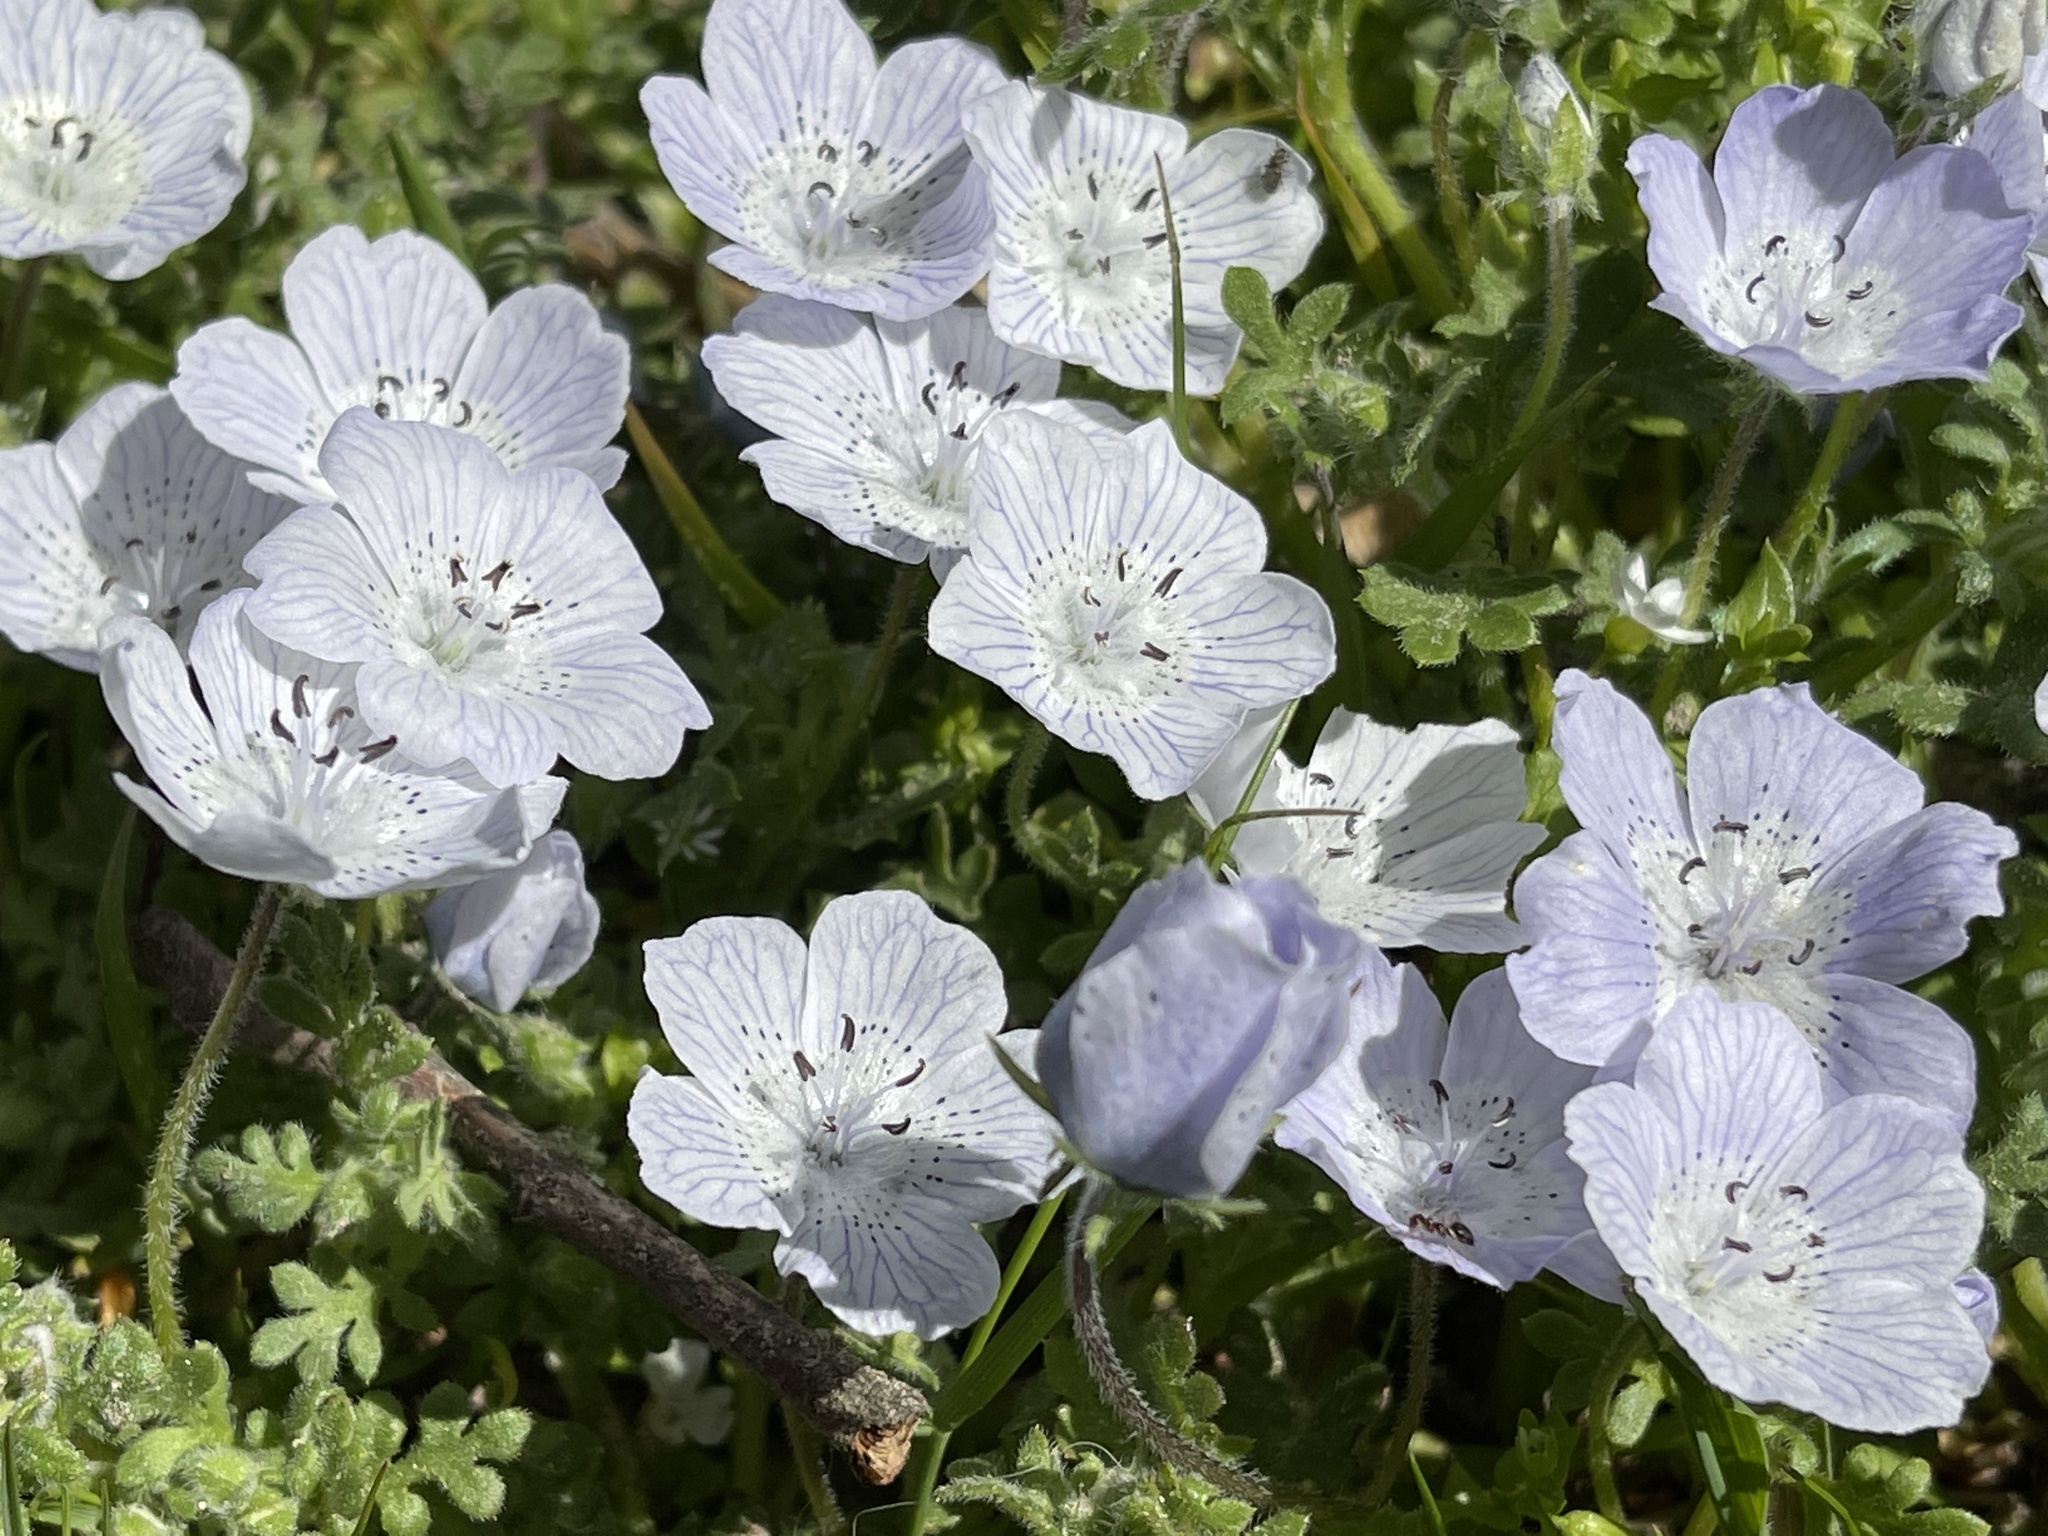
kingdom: Plantae
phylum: Tracheophyta
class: Magnoliopsida
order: Boraginales
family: Hydrophyllaceae
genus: Nemophila
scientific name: Nemophila menziesii
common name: Baby's-blue-eyes
